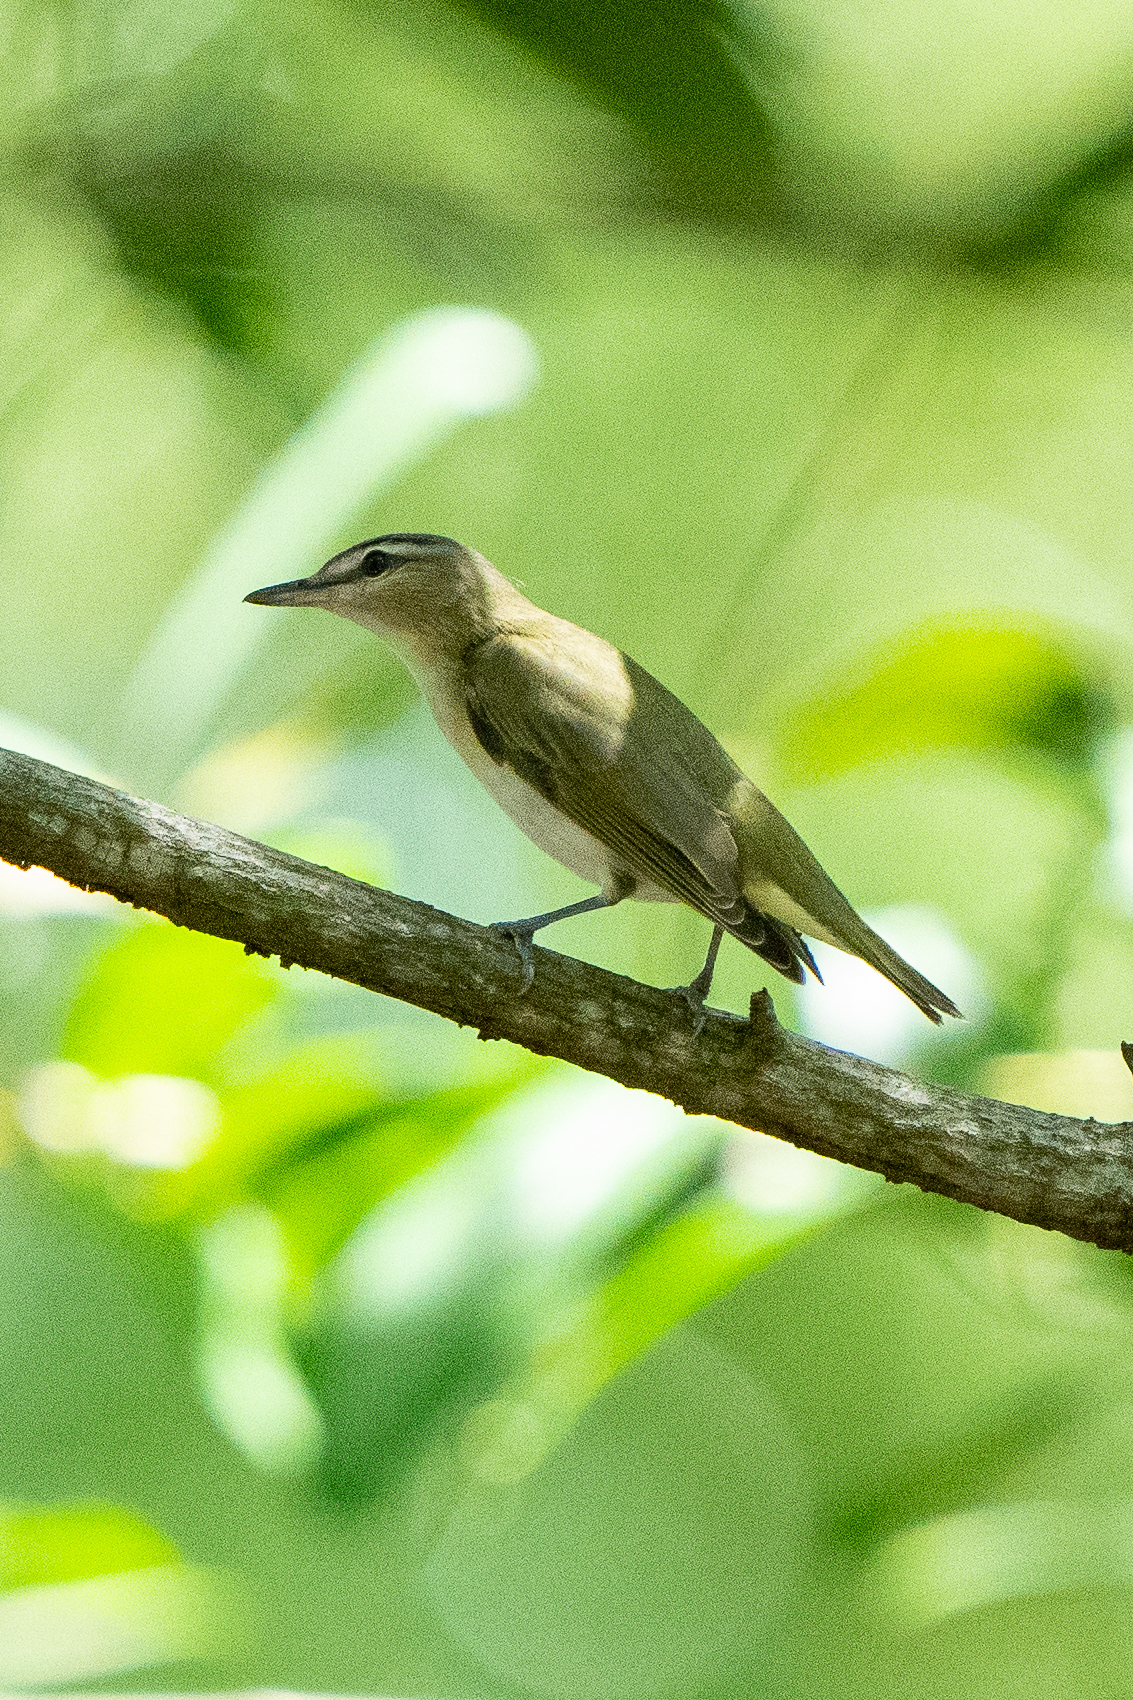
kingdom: Animalia
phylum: Chordata
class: Aves
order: Passeriformes
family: Vireonidae
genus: Vireo
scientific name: Vireo olivaceus
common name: Red-eyed vireo
